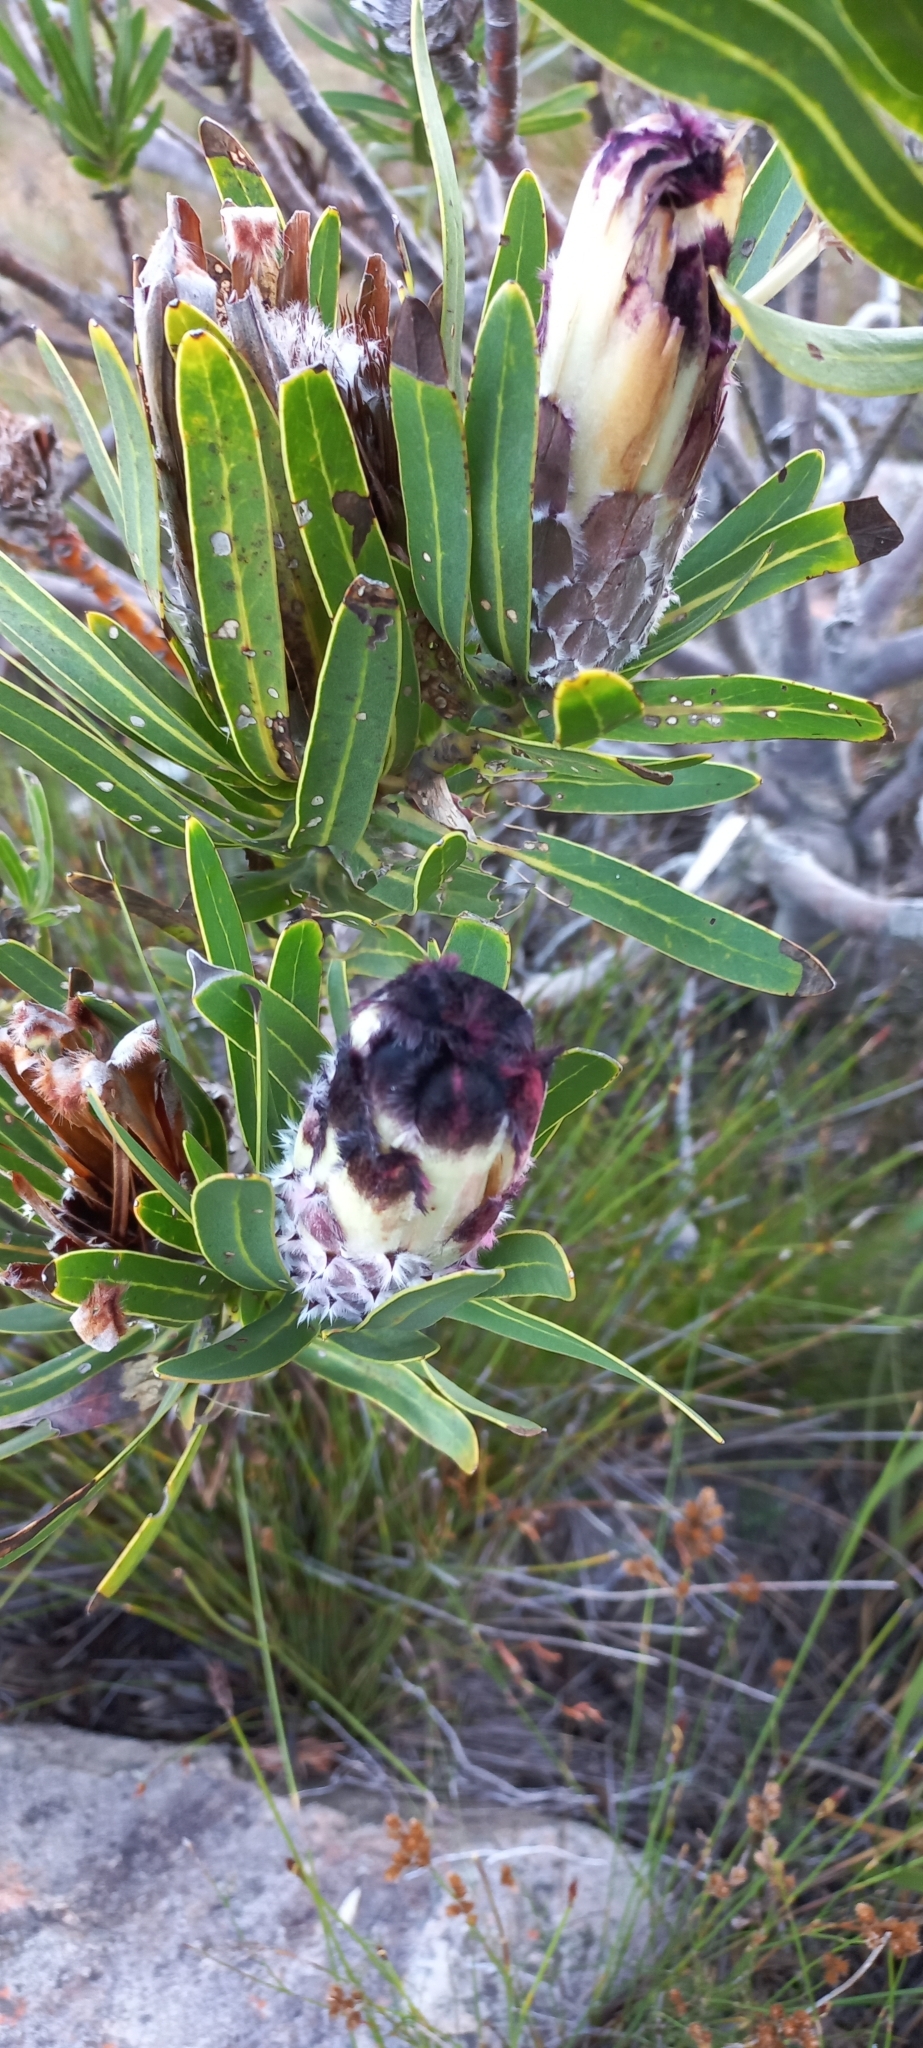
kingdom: Plantae
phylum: Tracheophyta
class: Magnoliopsida
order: Proteales
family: Proteaceae
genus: Protea
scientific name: Protea lepidocarpodendron
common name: Black-bearded protea
